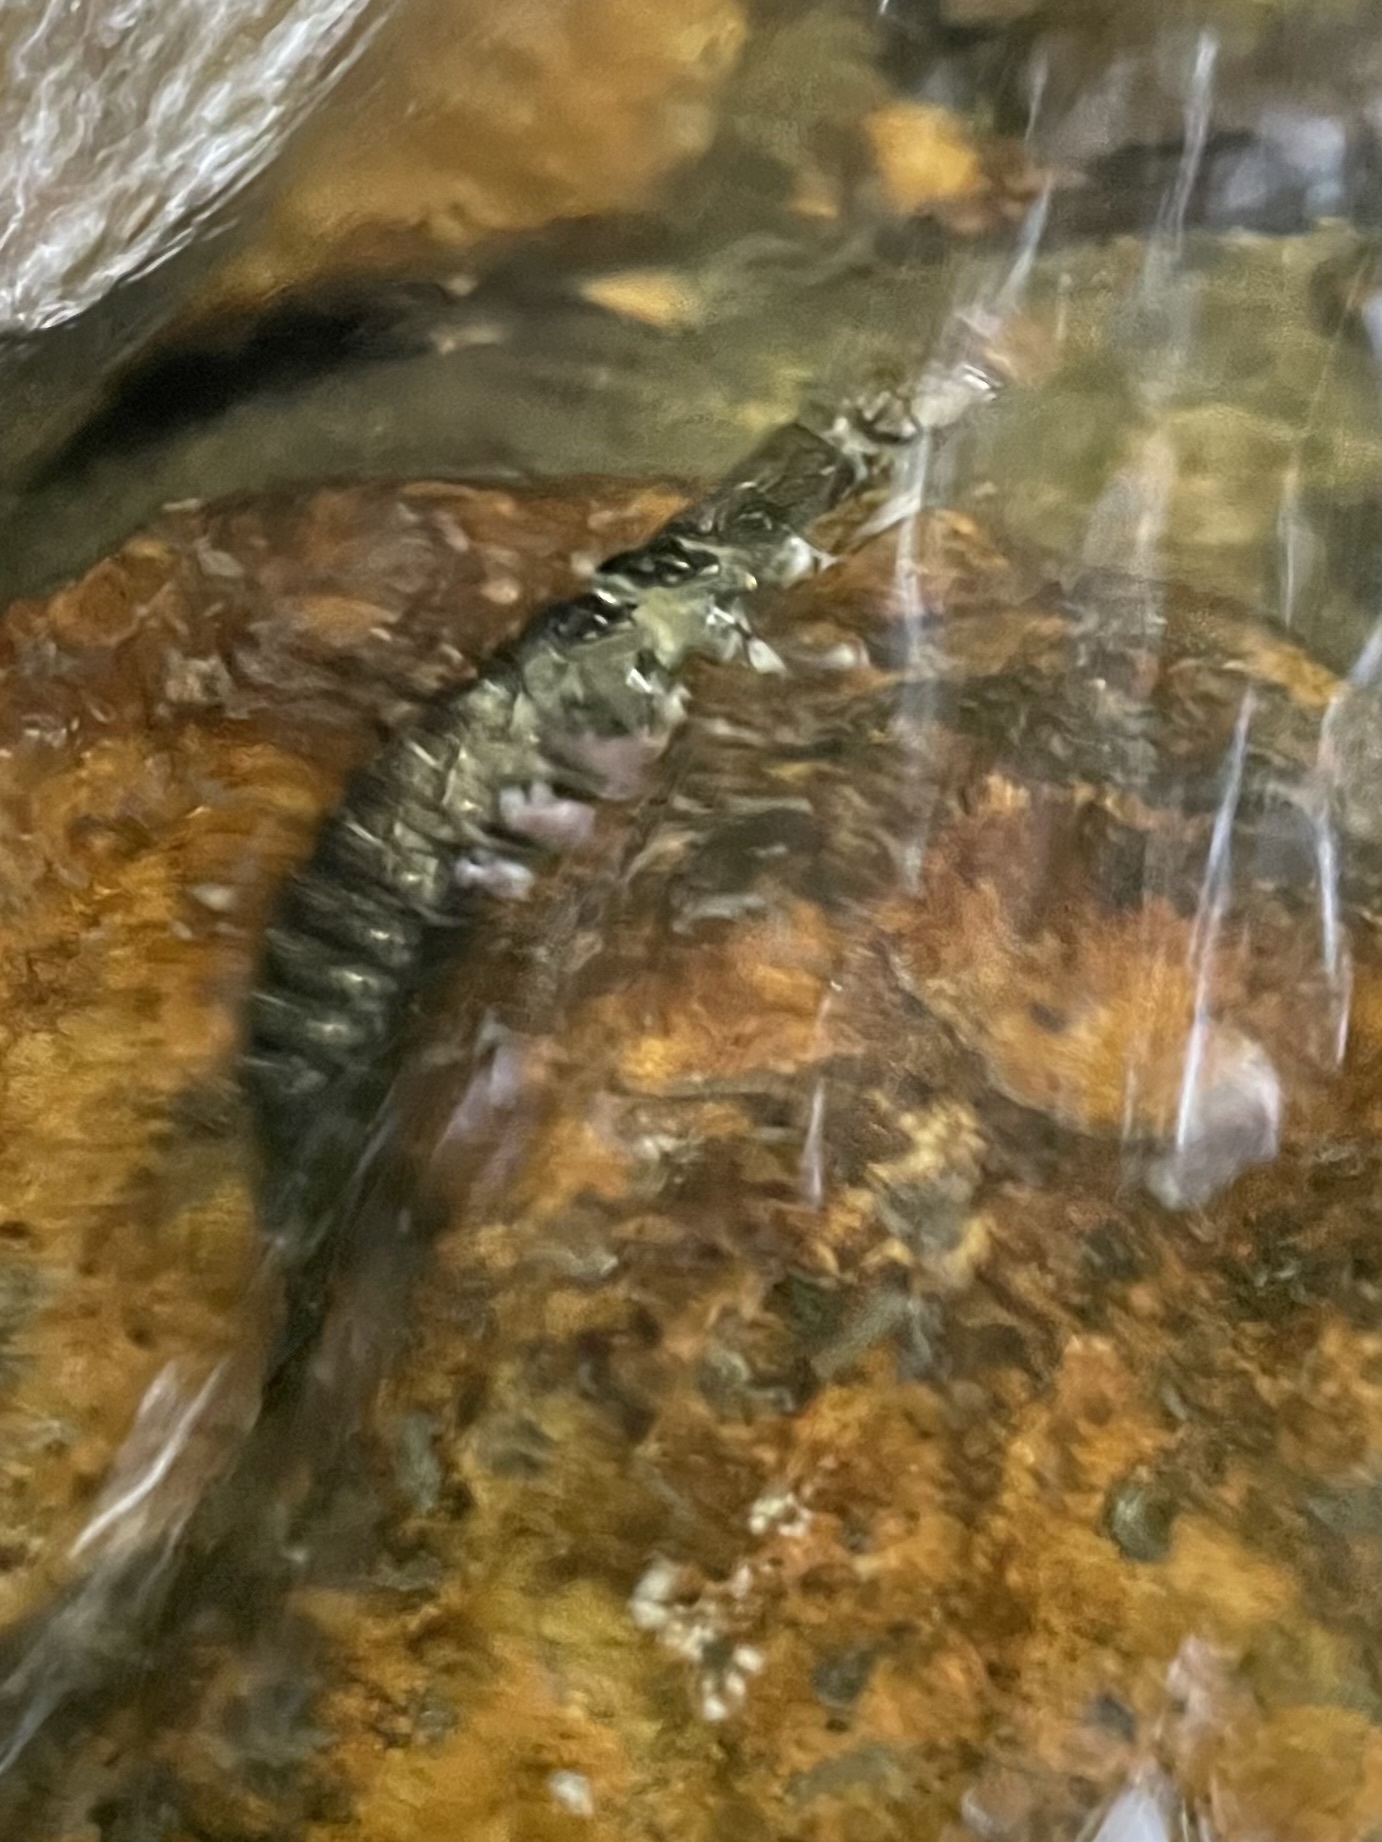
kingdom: Animalia
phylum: Arthropoda
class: Insecta
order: Megaloptera
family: Corydalidae
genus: Corydalus
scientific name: Corydalus cornutus
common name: Dobsonfly
